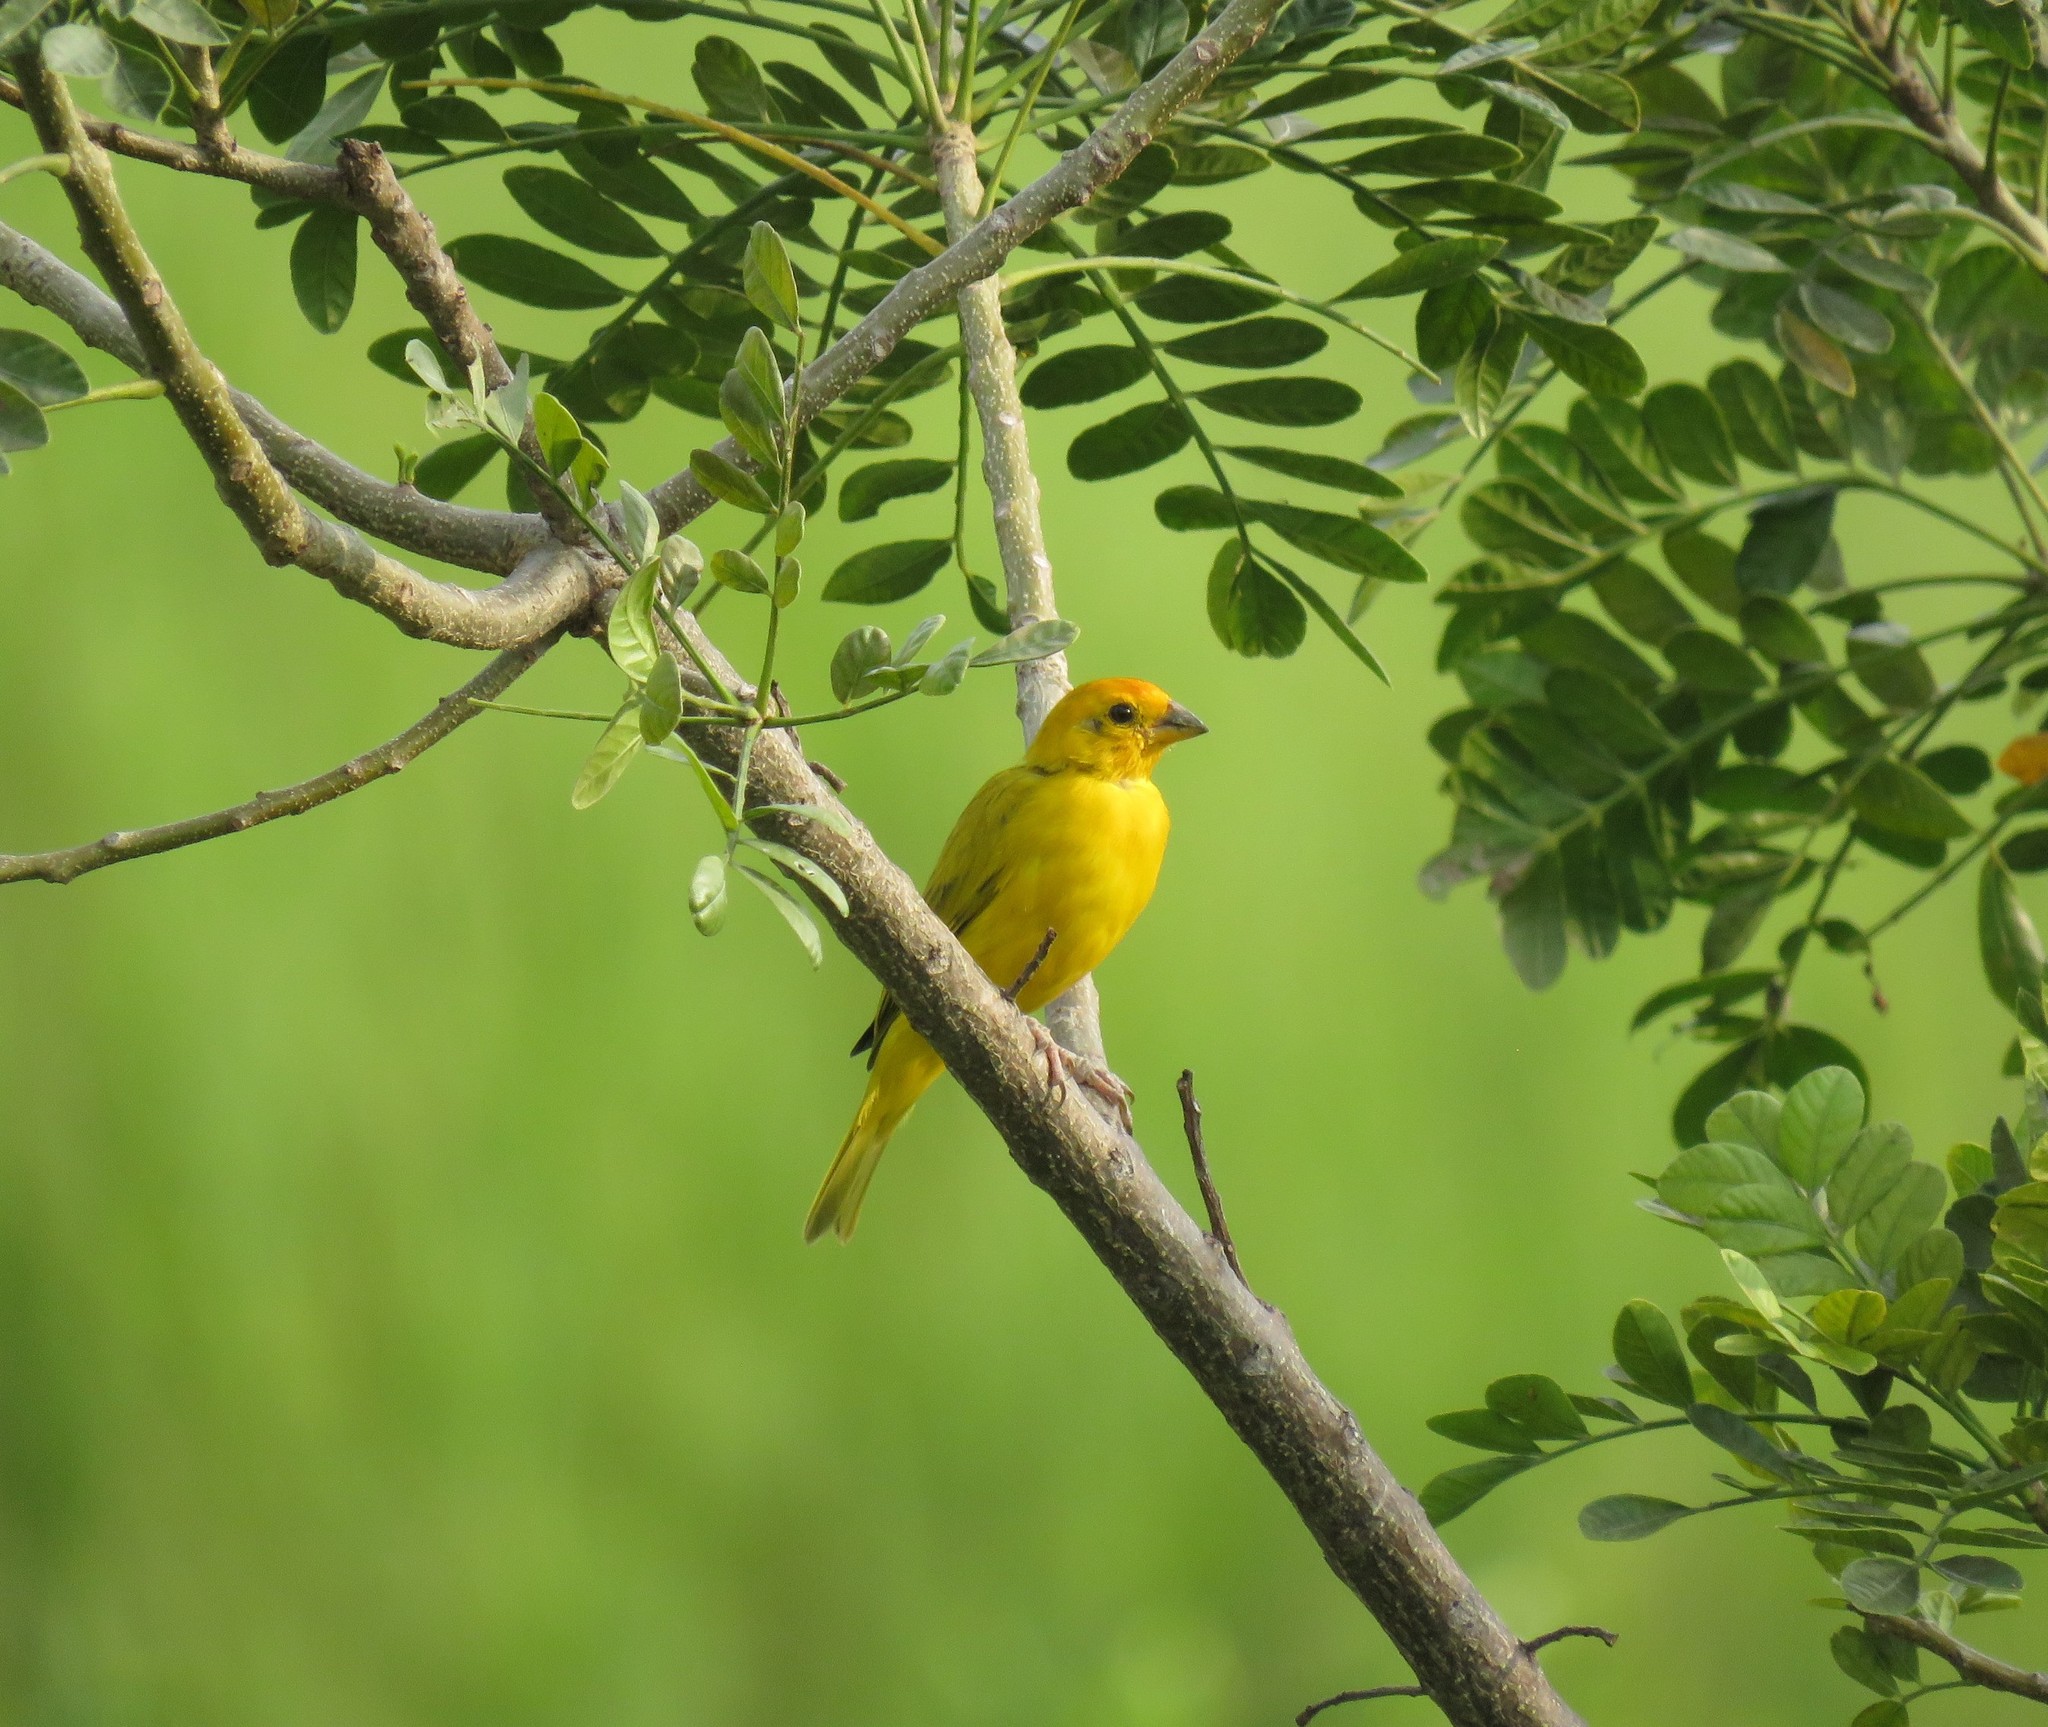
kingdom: Animalia
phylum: Chordata
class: Aves
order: Passeriformes
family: Thraupidae
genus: Sicalis
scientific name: Sicalis flaveola
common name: Saffron finch
